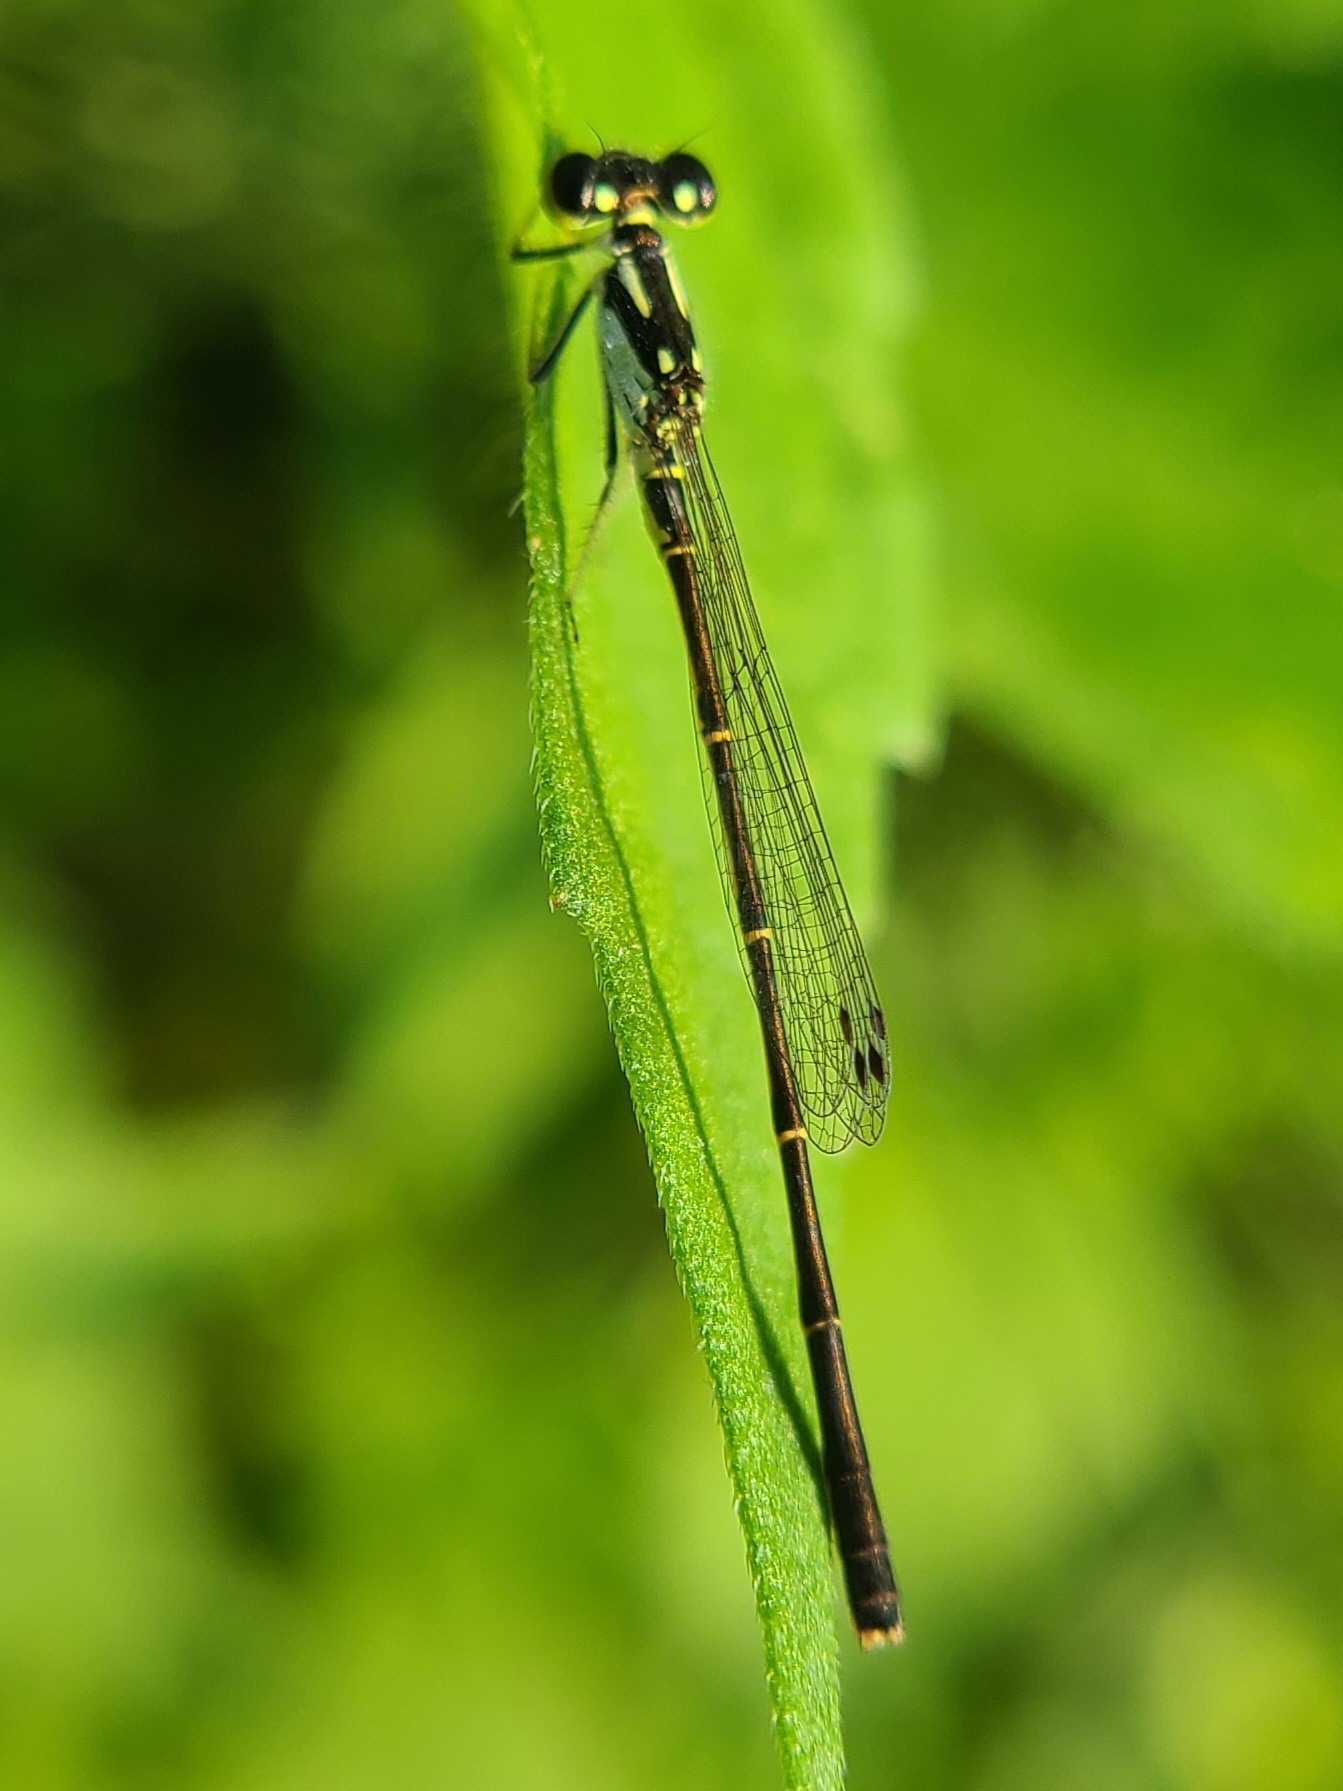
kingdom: Animalia
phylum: Arthropoda
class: Insecta
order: Odonata
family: Coenagrionidae
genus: Ischnura
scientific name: Ischnura posita
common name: Fragile forktail
